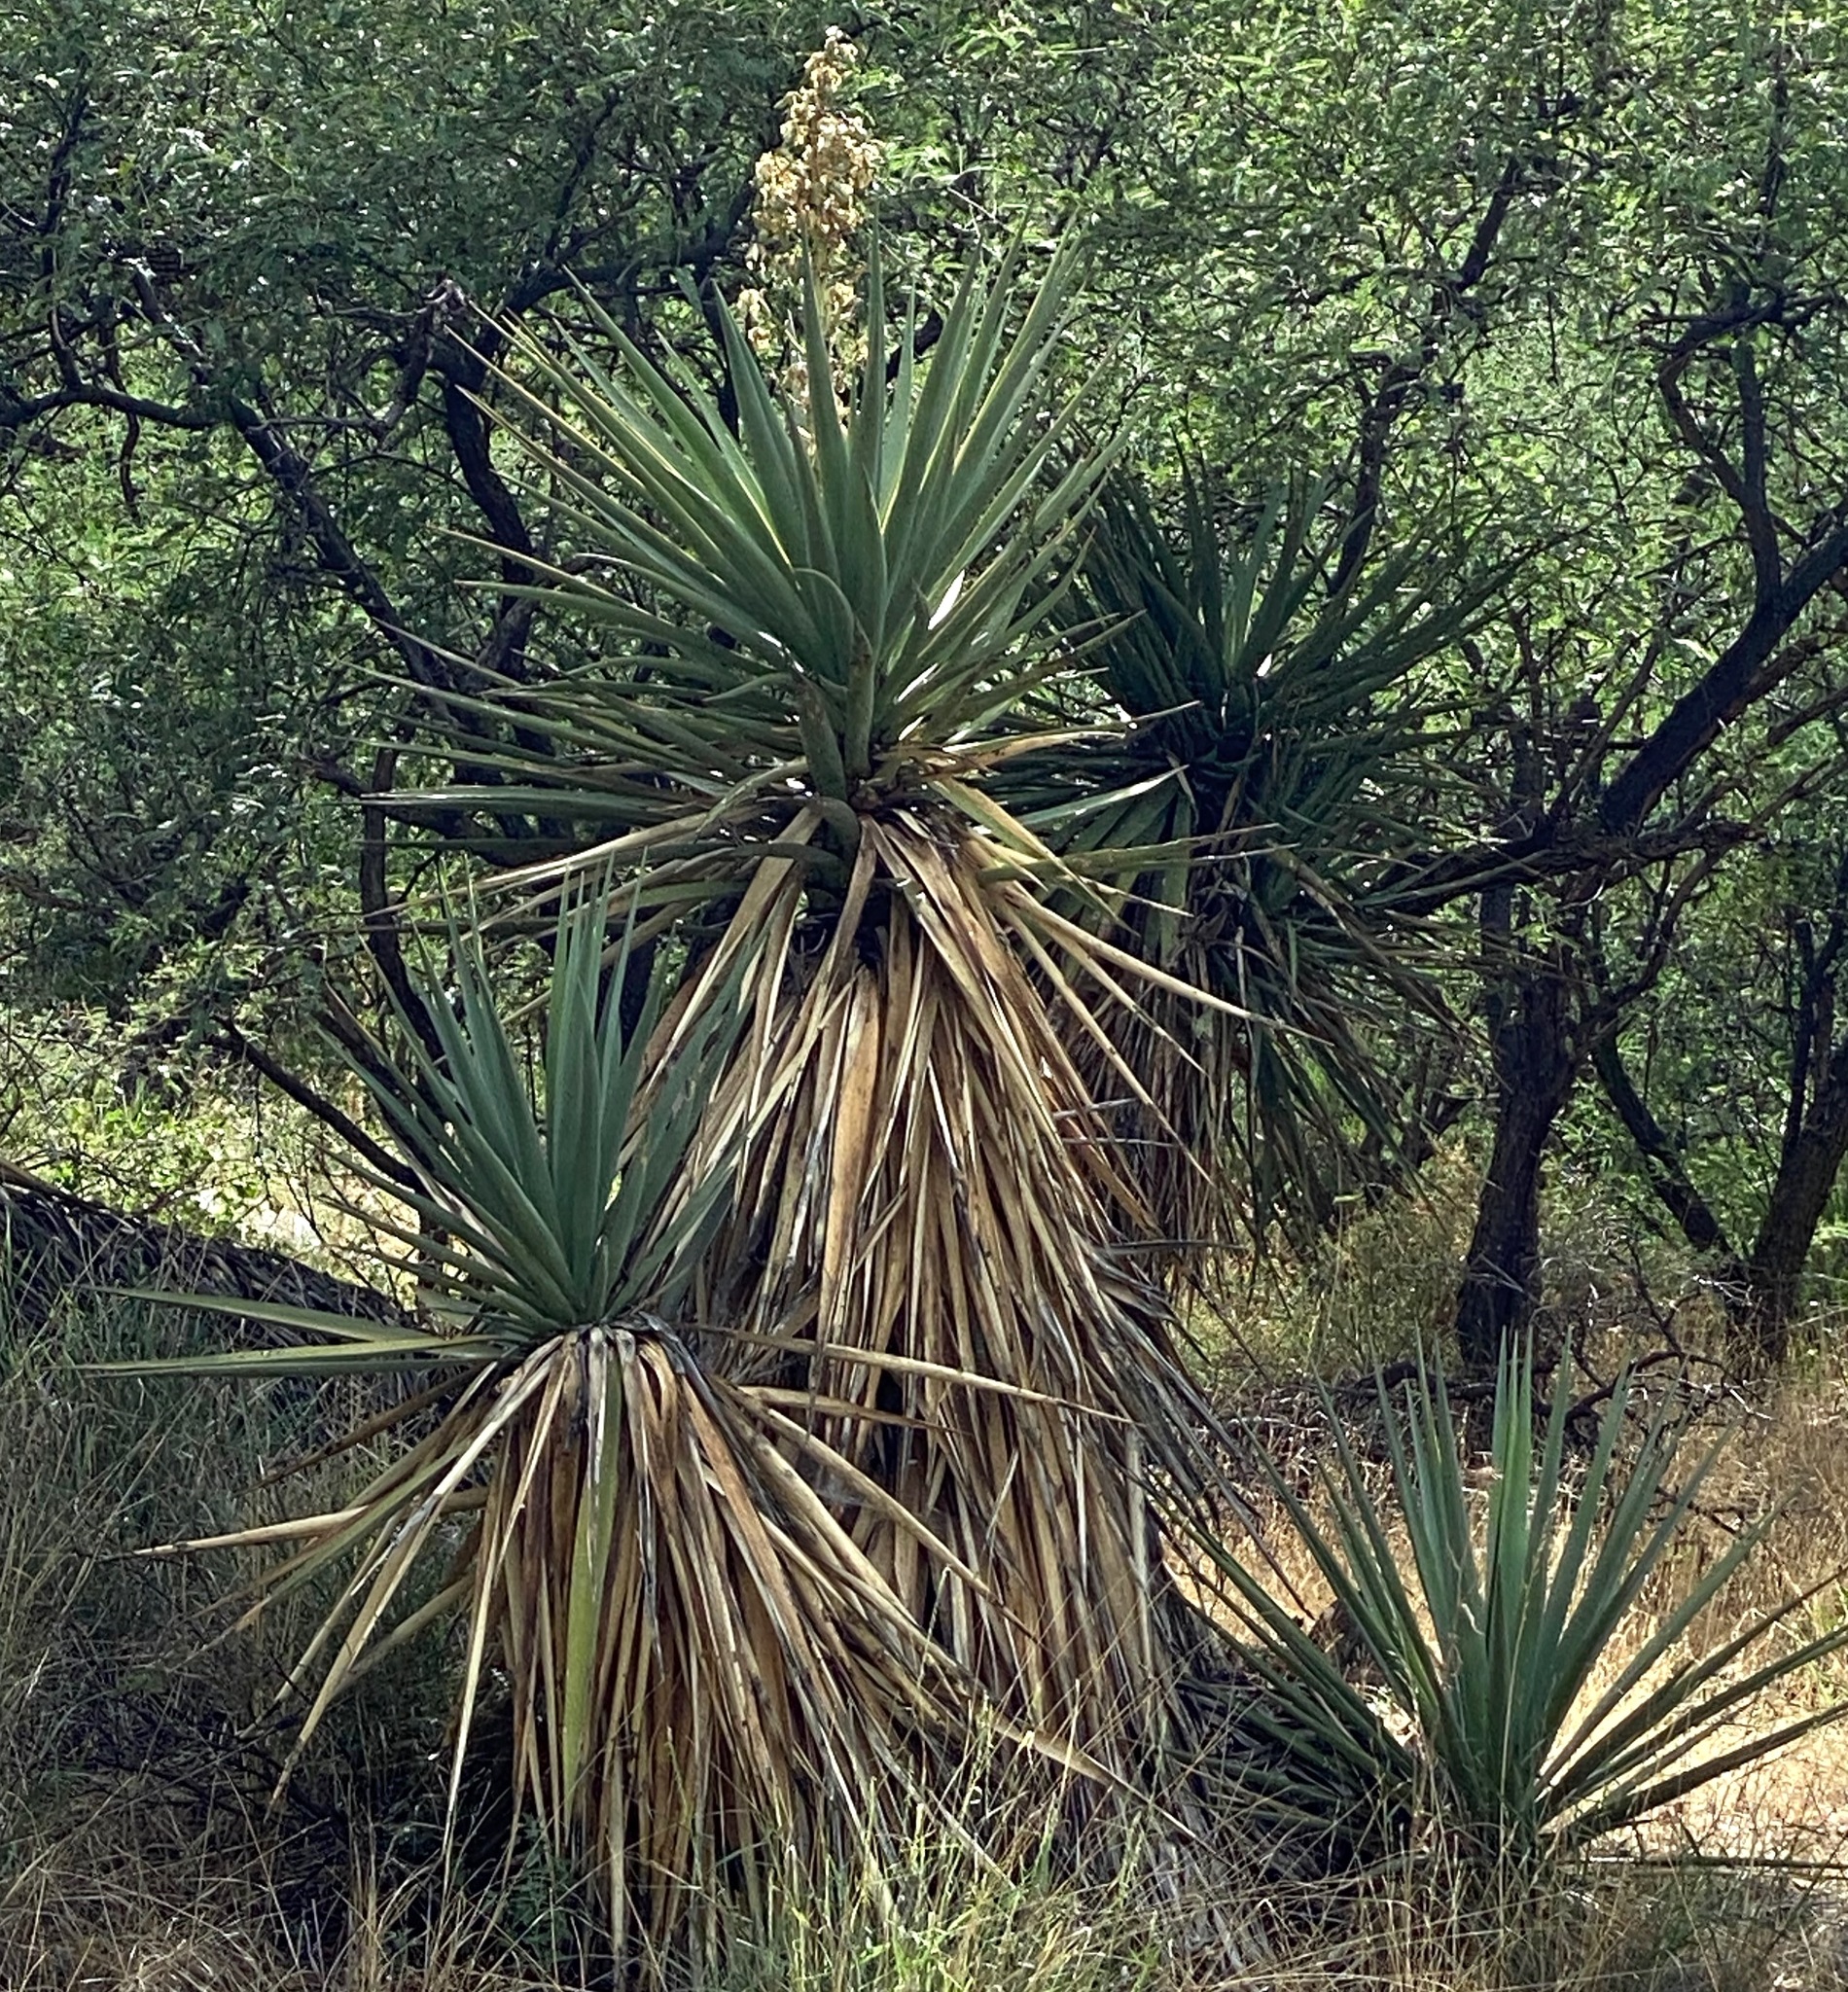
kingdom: Plantae
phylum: Tracheophyta
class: Liliopsida
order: Asparagales
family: Asparagaceae
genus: Yucca
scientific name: Yucca madrensis
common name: Hoary yucca
